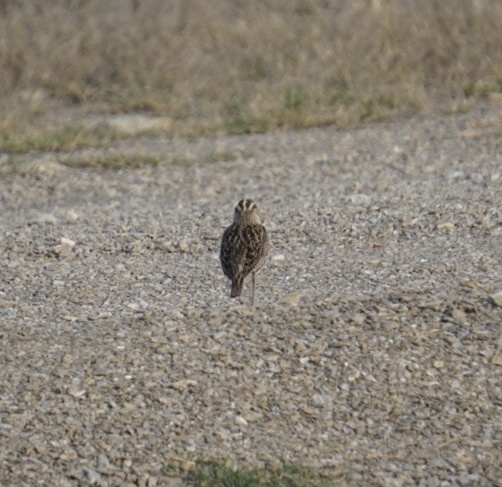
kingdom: Animalia
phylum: Chordata
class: Aves
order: Passeriformes
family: Icteridae
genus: Sturnella
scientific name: Sturnella
